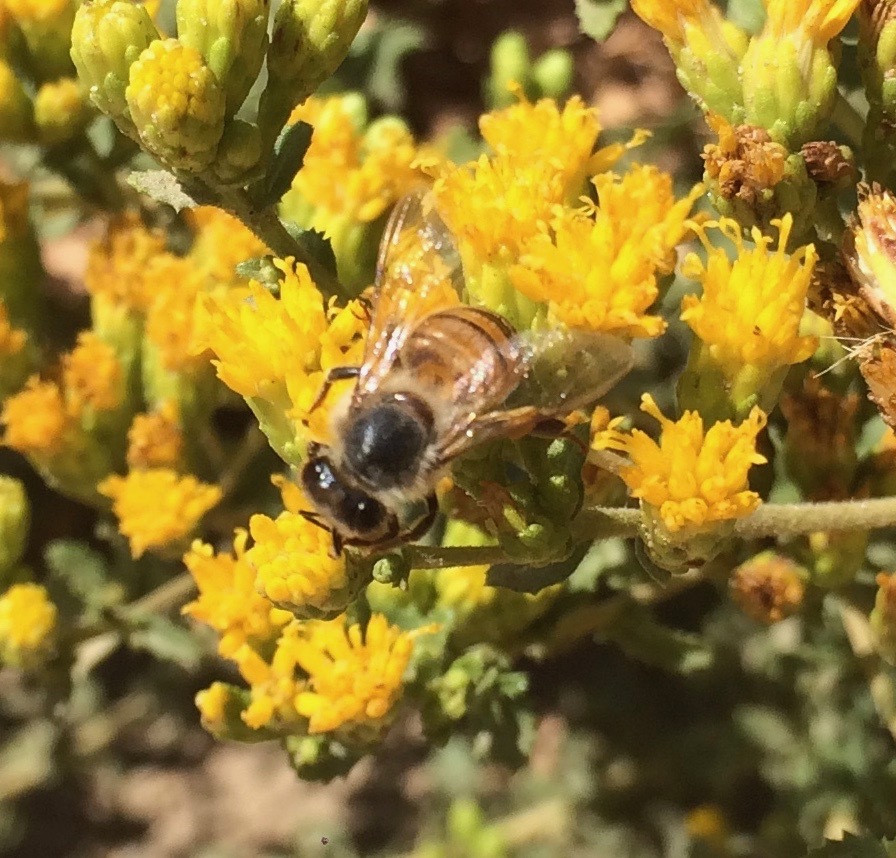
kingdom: Animalia
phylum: Arthropoda
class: Insecta
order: Hymenoptera
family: Apidae
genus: Apis
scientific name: Apis mellifera
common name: Honey bee
